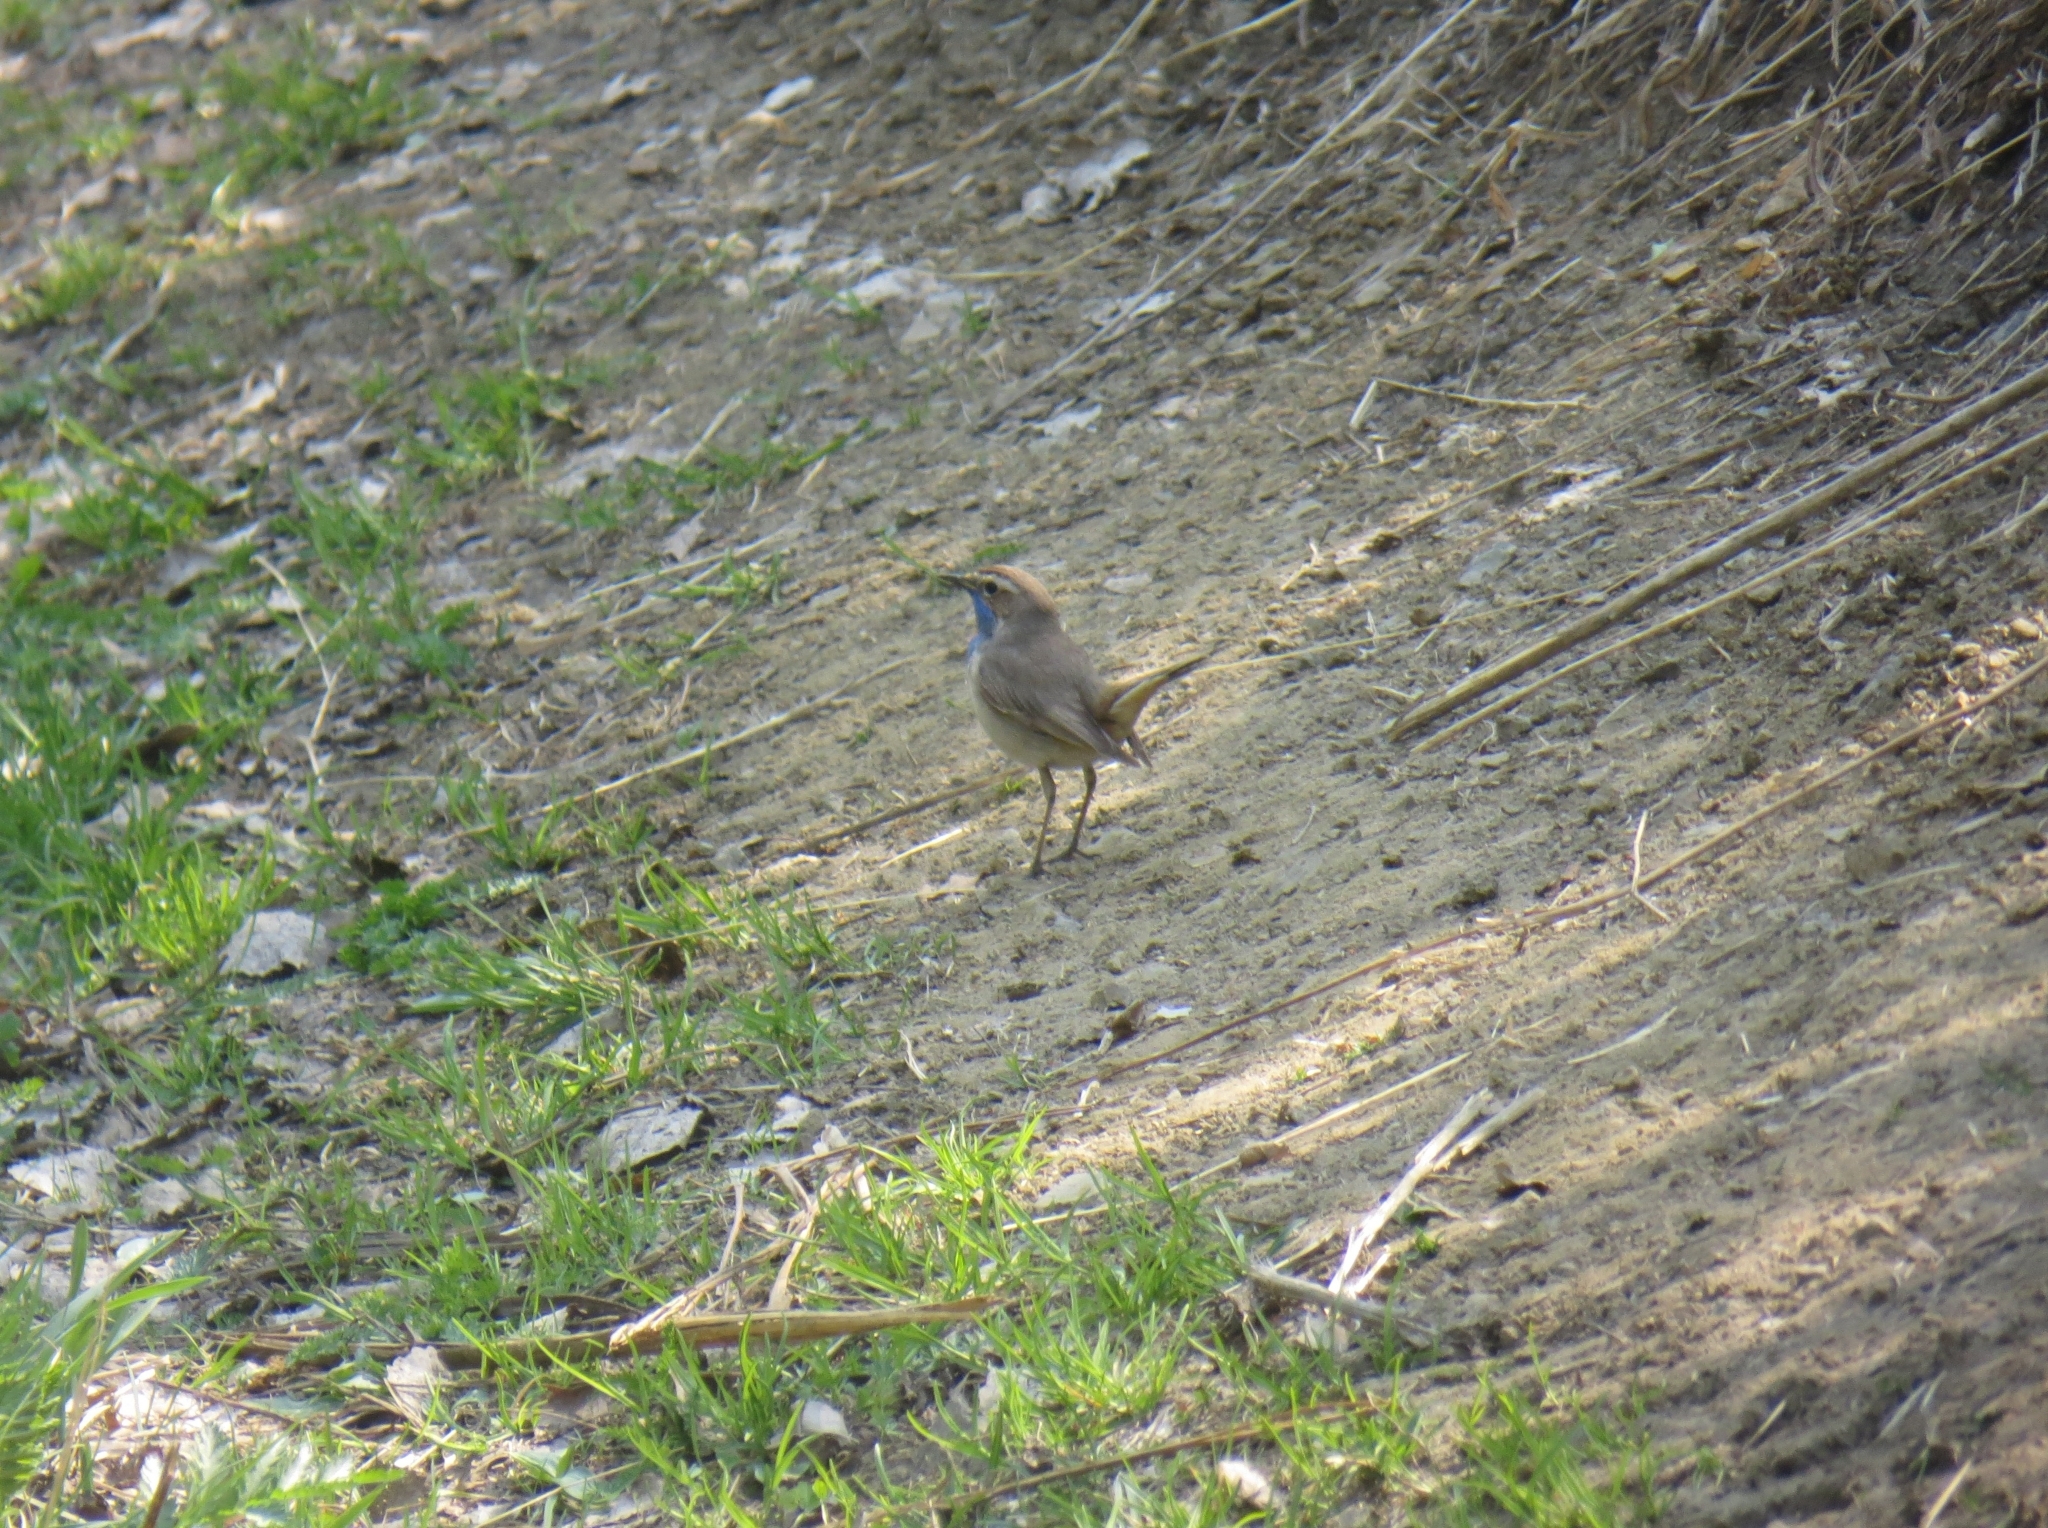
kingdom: Animalia
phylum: Chordata
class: Aves
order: Passeriformes
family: Muscicapidae
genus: Luscinia
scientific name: Luscinia svecica
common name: Bluethroat
